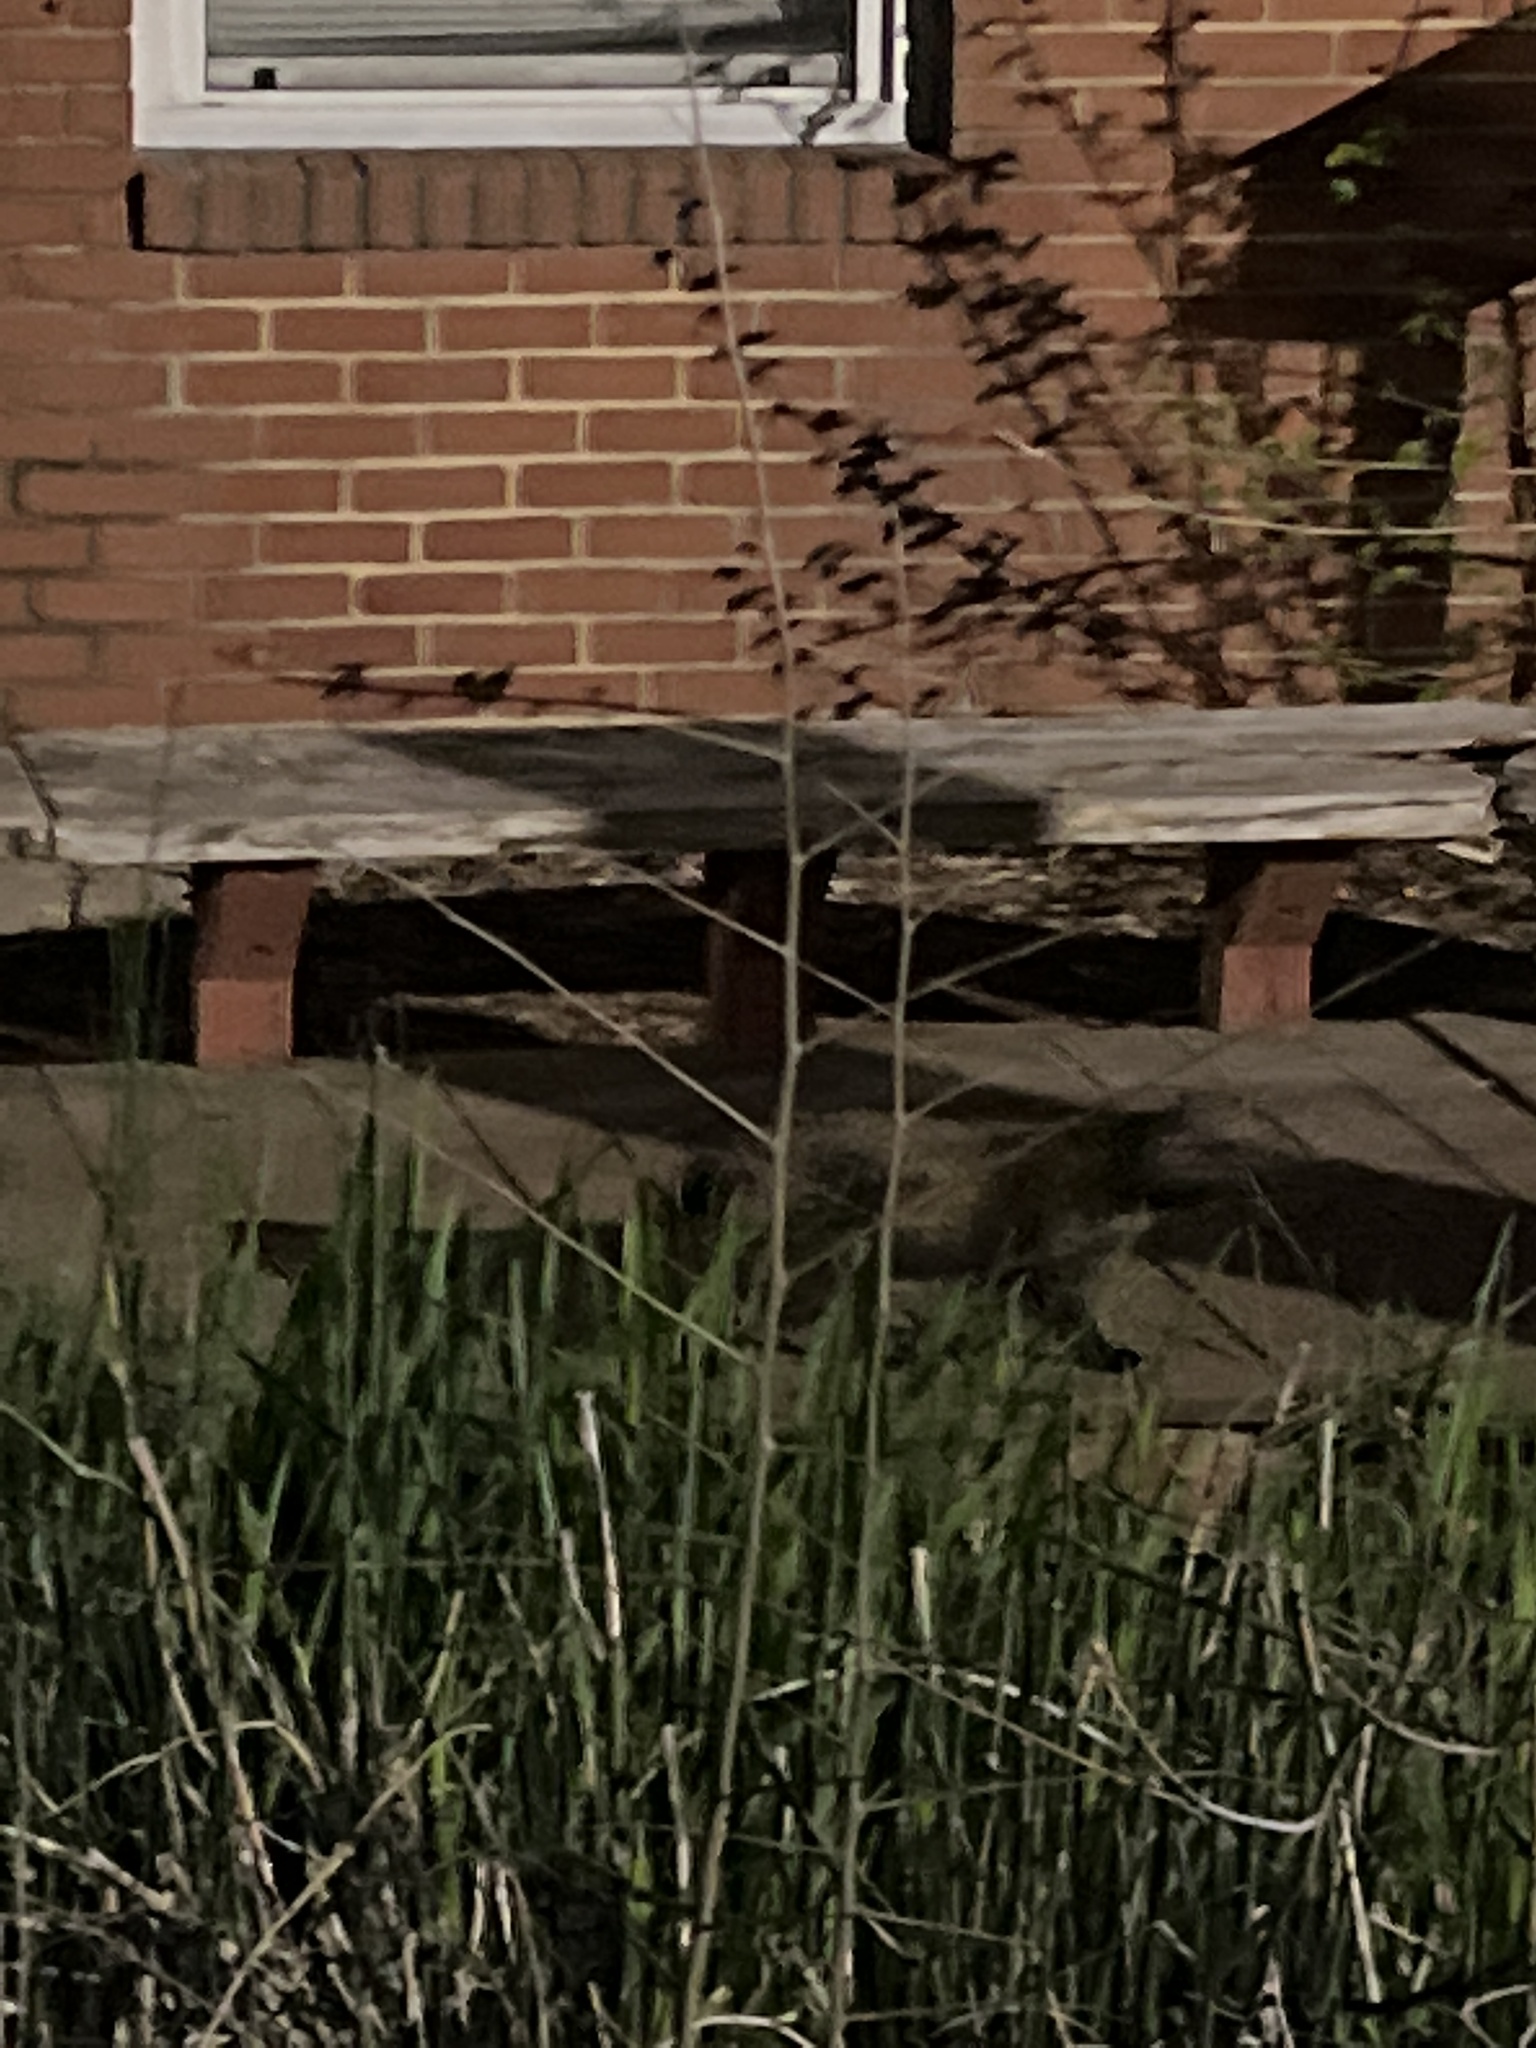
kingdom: Animalia
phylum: Chordata
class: Mammalia
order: Carnivora
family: Felidae
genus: Felis
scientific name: Felis catus
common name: Domestic cat
